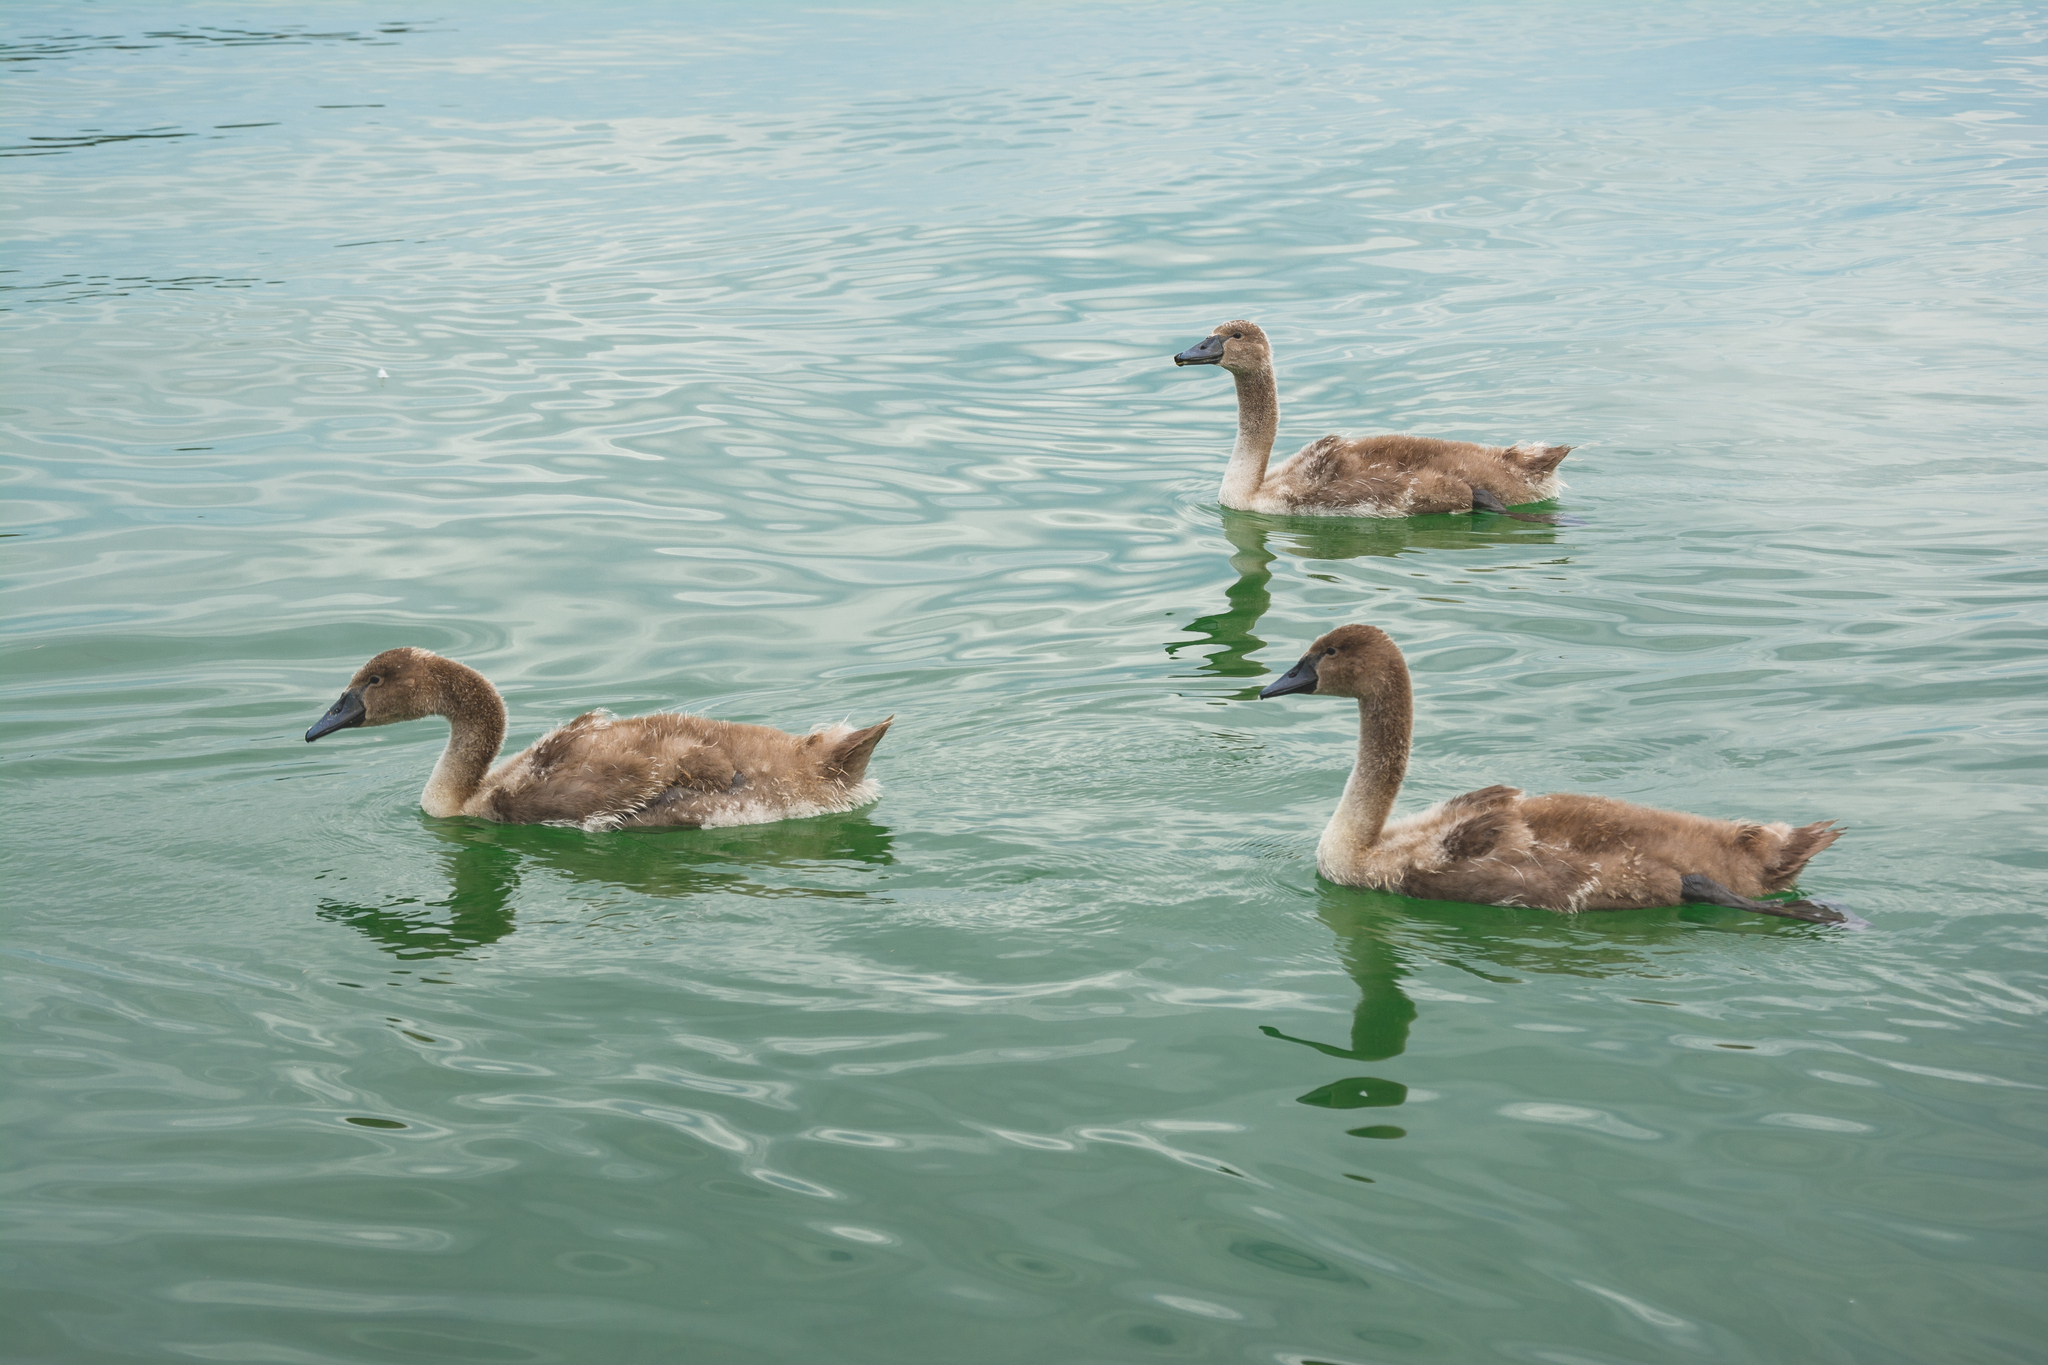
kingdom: Animalia
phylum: Chordata
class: Aves
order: Anseriformes
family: Anatidae
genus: Cygnus
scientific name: Cygnus olor
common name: Mute swan
